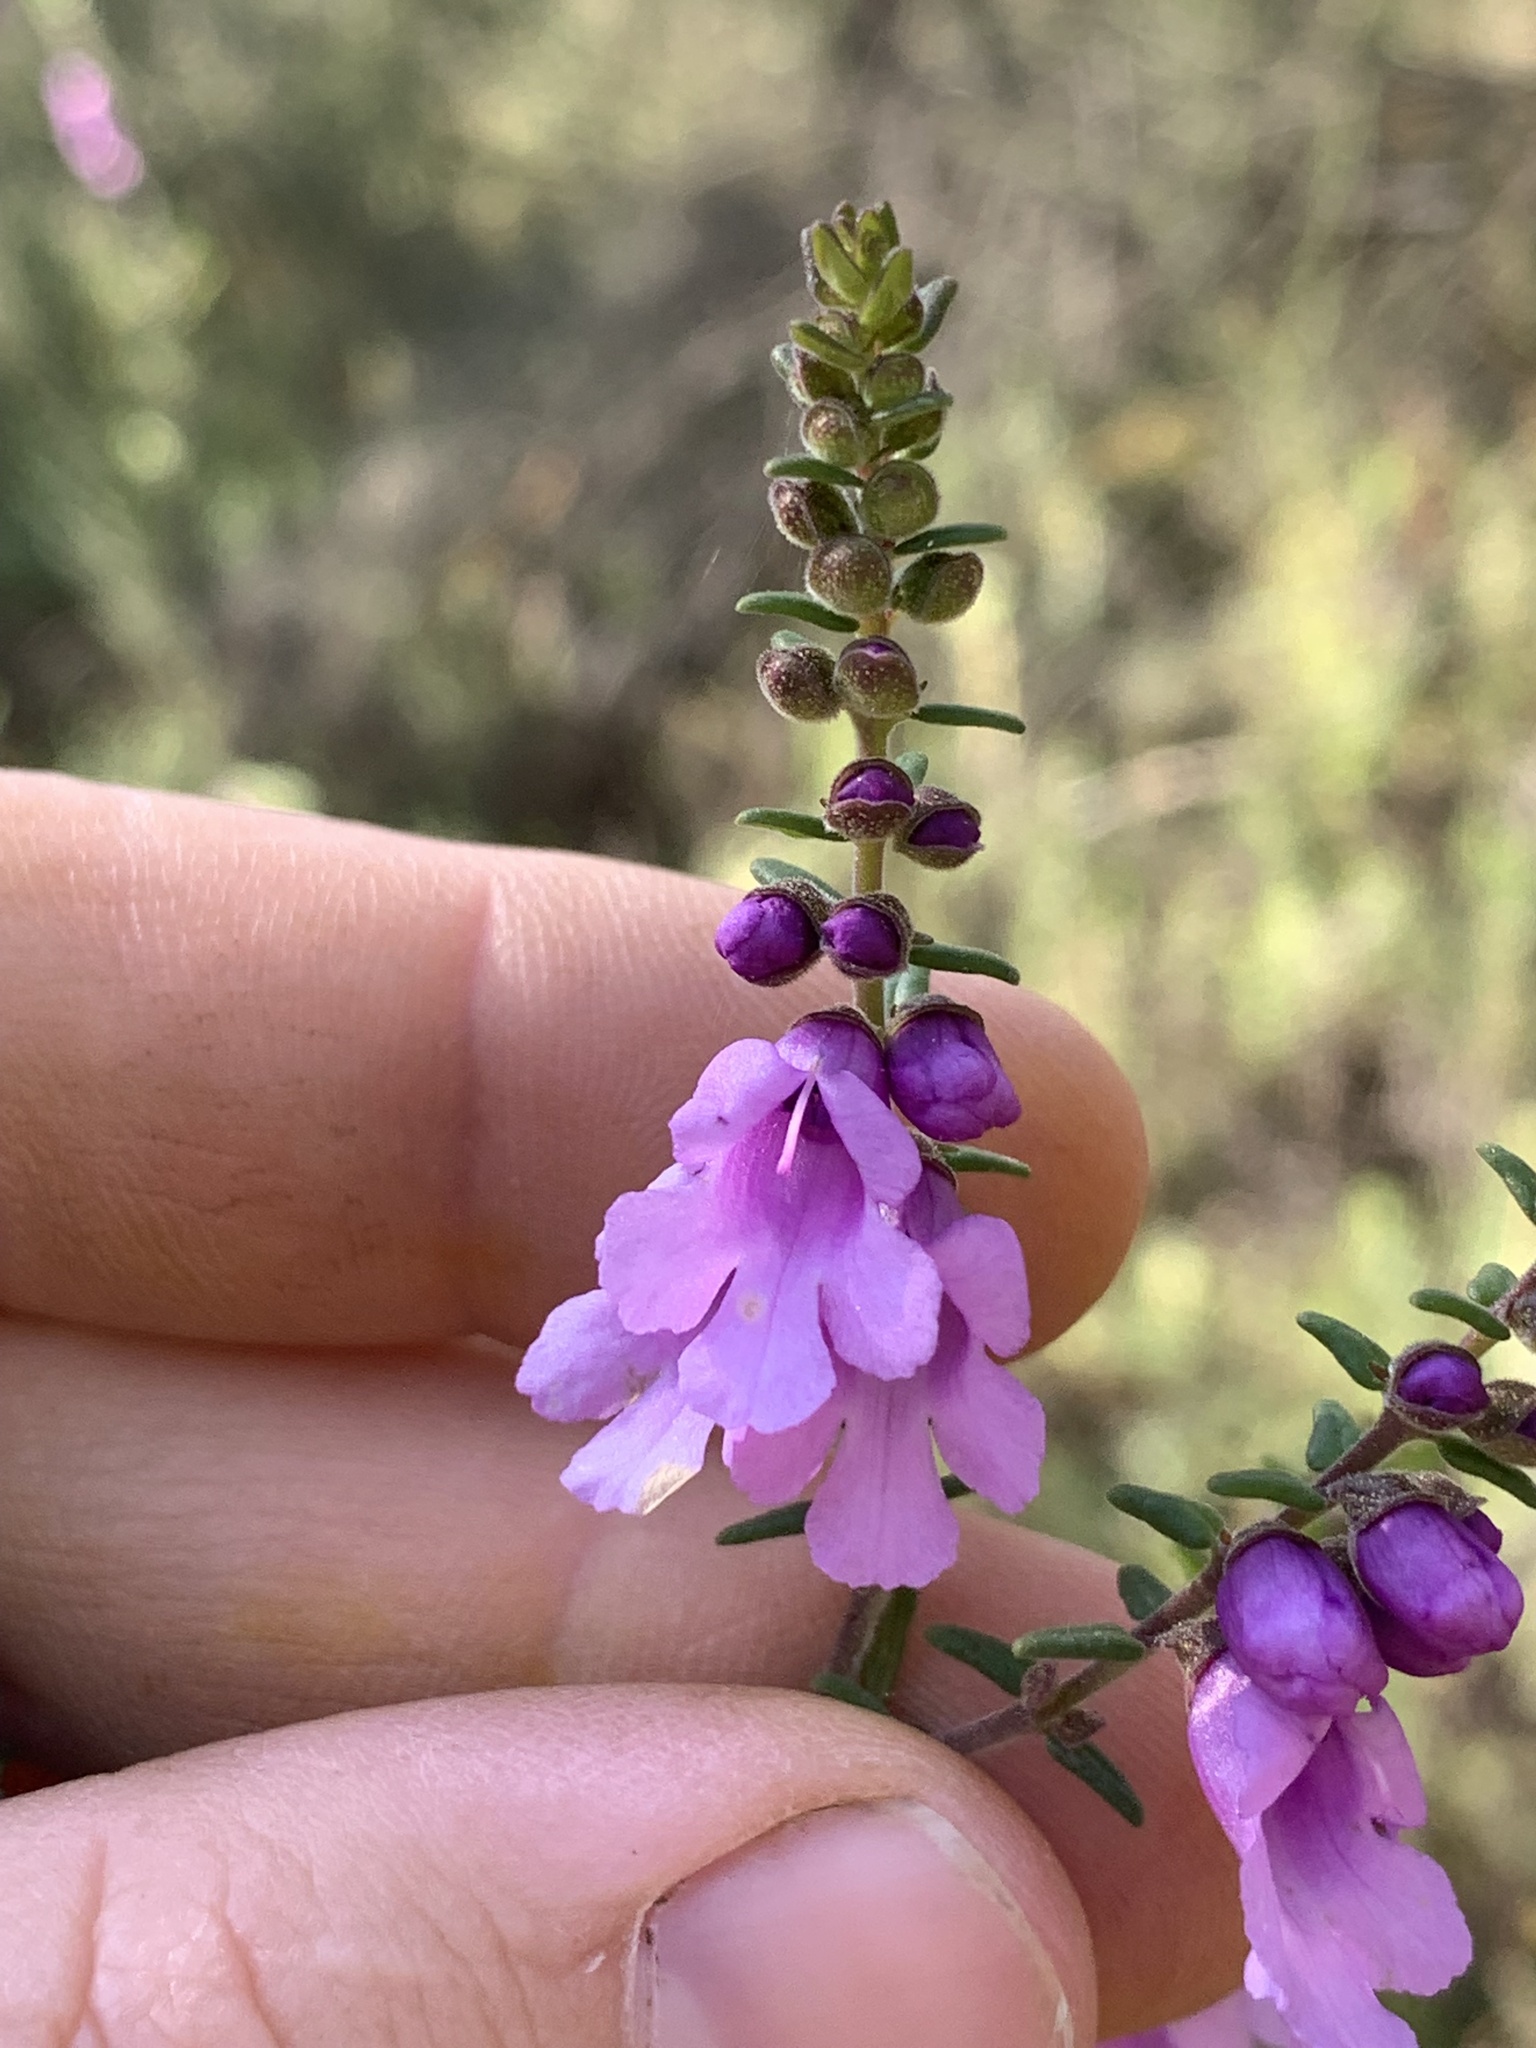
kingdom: Plantae
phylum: Tracheophyta
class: Magnoliopsida
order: Lamiales
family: Lamiaceae
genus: Prostanthera
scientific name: Prostanthera decussata
